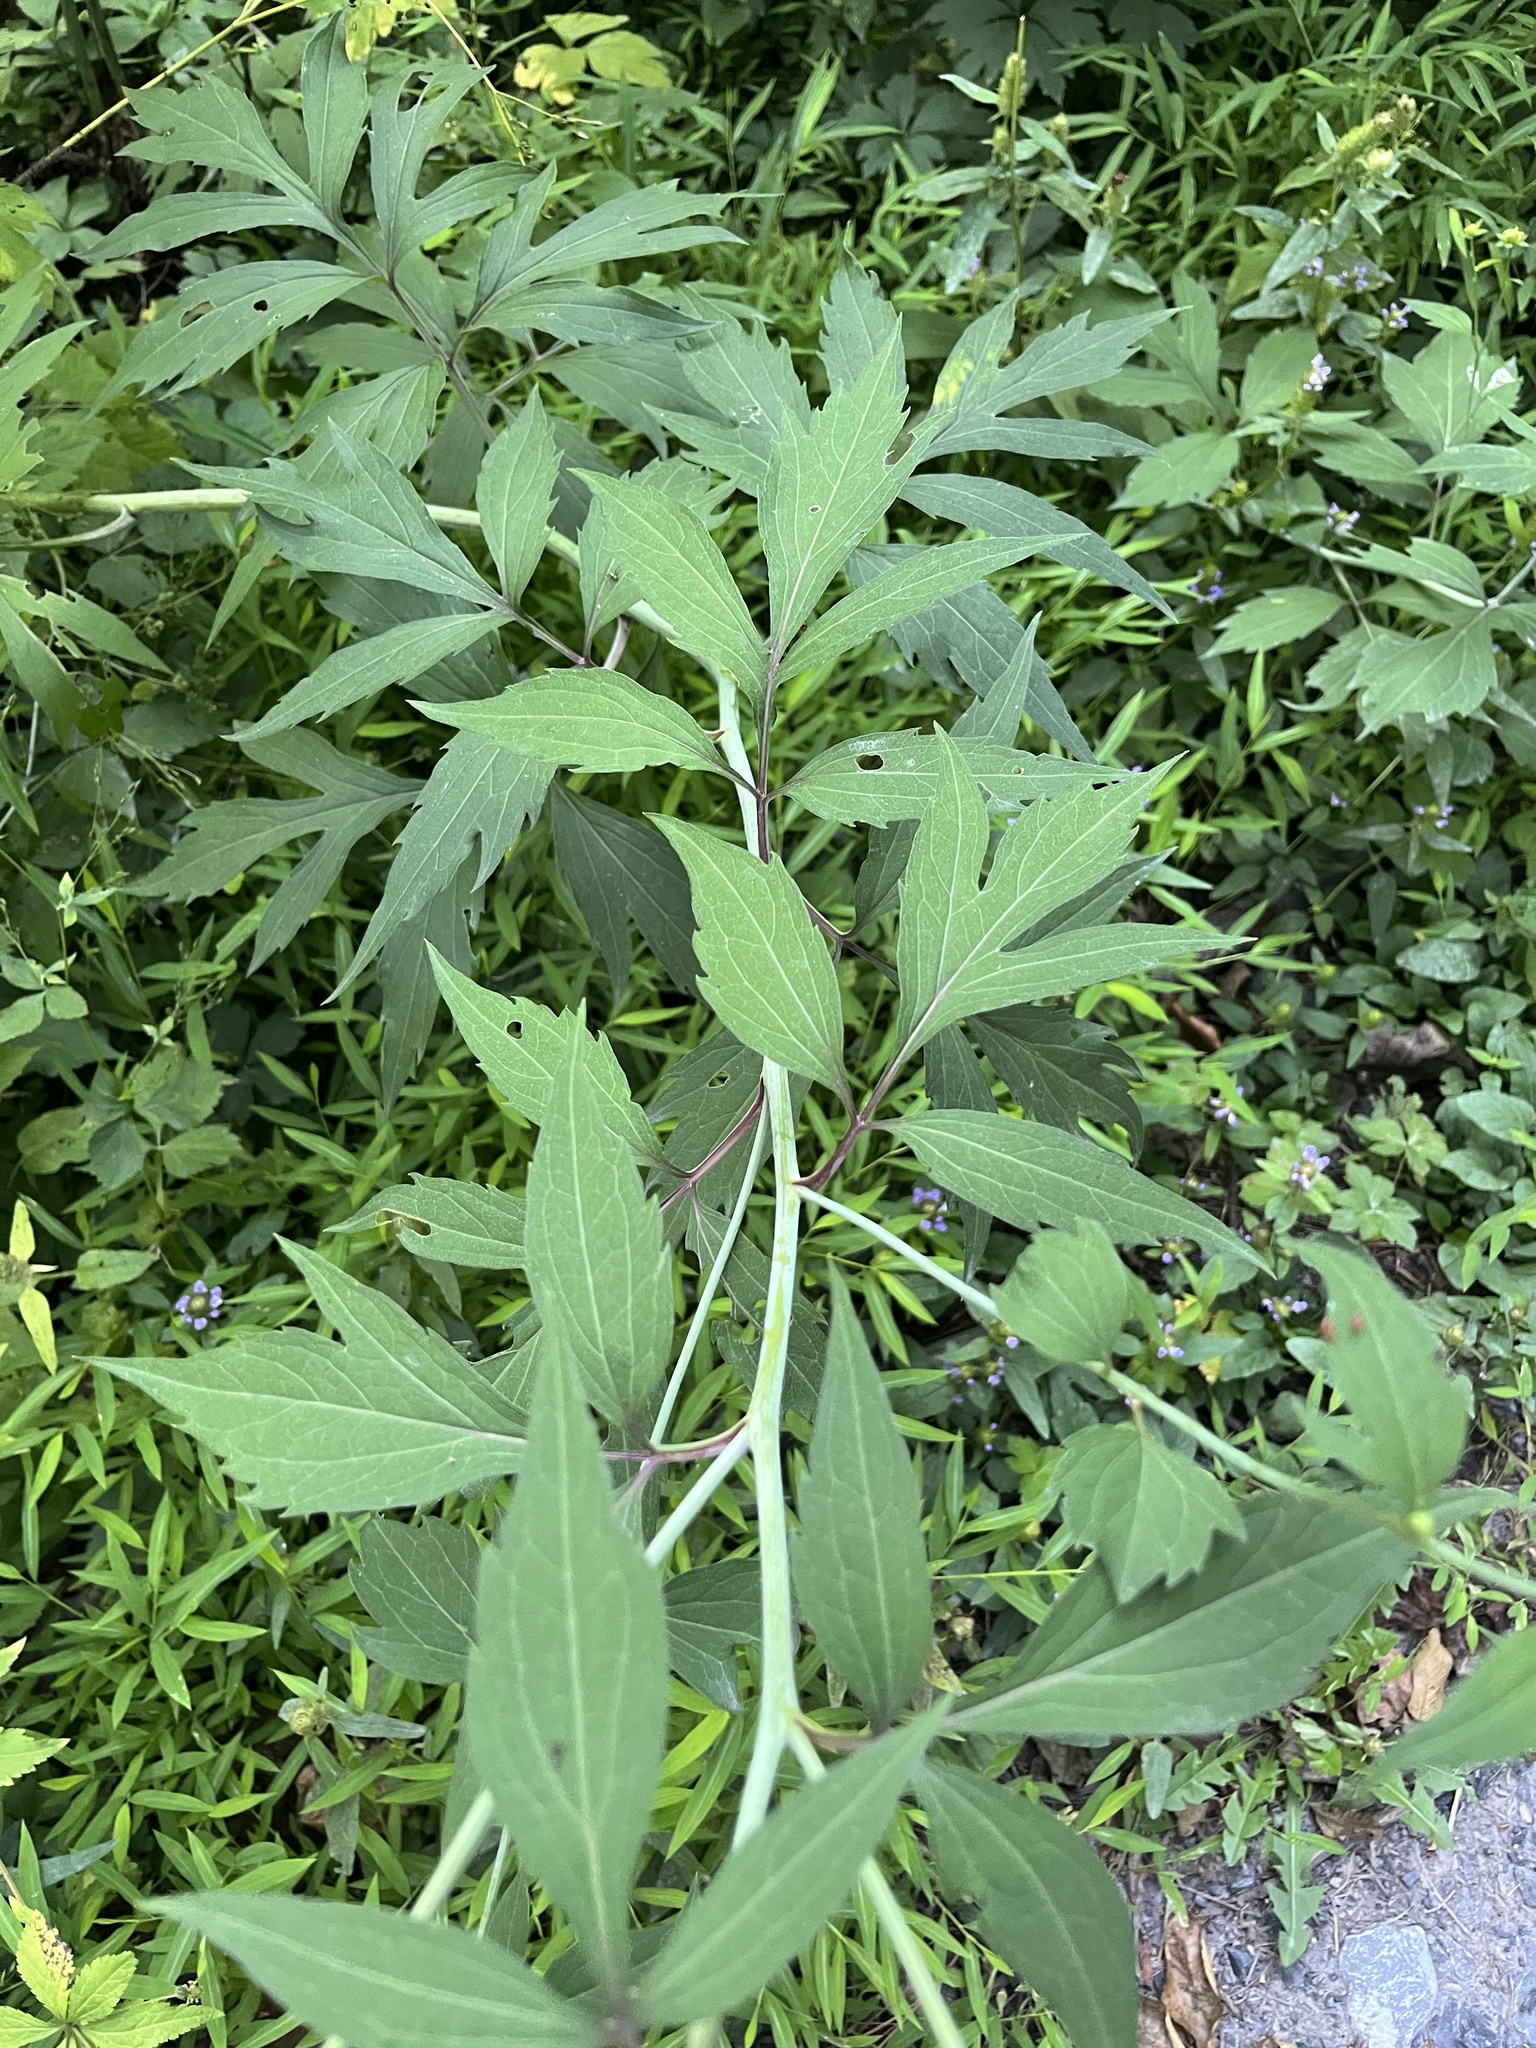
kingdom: Plantae
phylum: Tracheophyta
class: Magnoliopsida
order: Asterales
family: Asteraceae
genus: Rudbeckia
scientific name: Rudbeckia laciniata
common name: Coneflower
